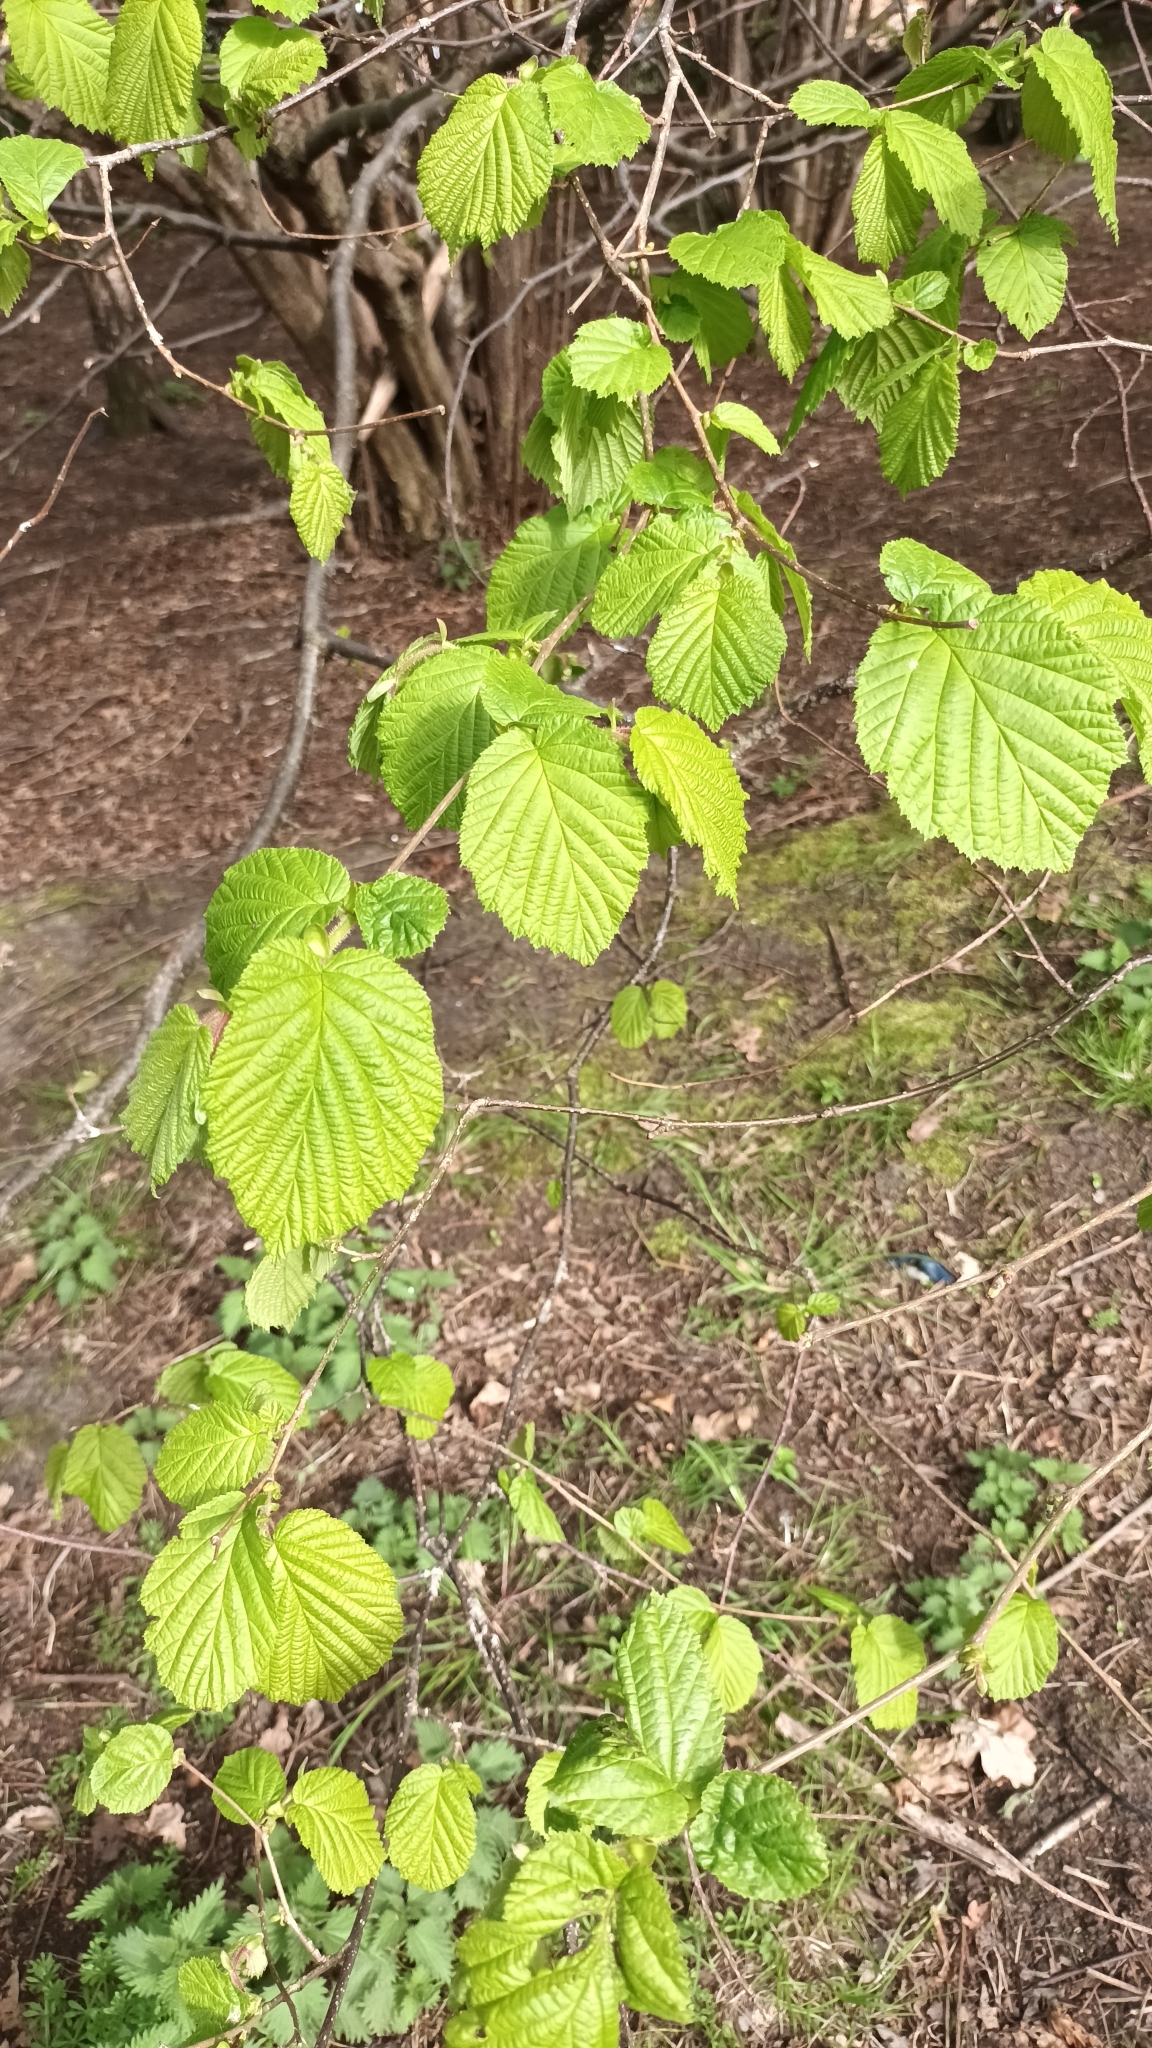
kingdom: Plantae
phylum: Tracheophyta
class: Magnoliopsida
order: Fagales
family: Betulaceae
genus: Corylus
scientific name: Corylus avellana
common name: European hazel
